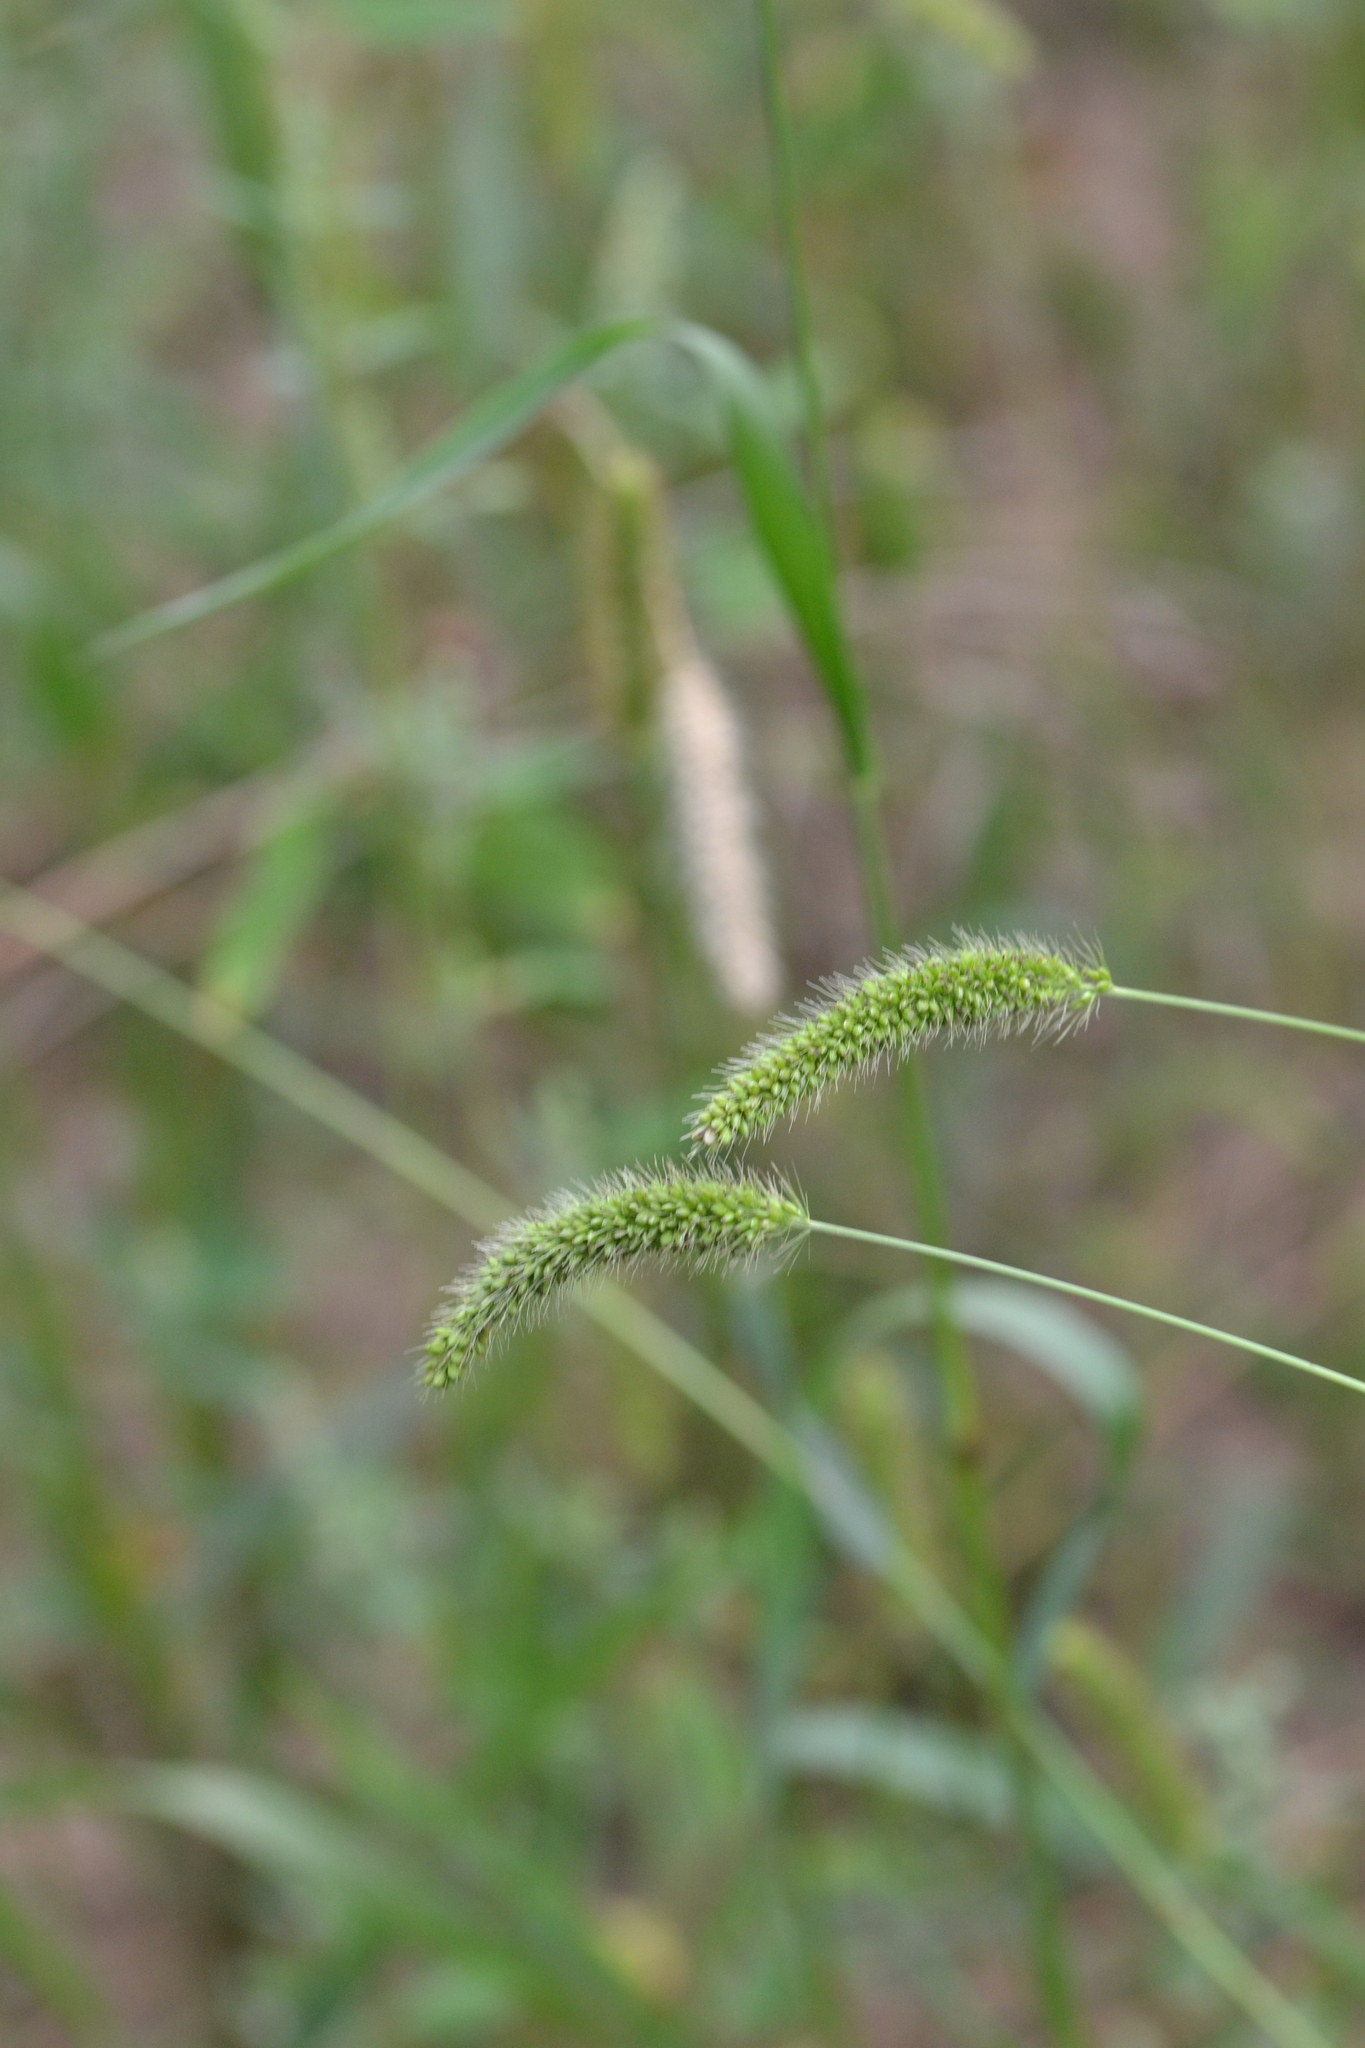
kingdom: Plantae
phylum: Tracheophyta
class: Liliopsida
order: Poales
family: Poaceae
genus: Setaria
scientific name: Setaria viridis
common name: Green bristlegrass
